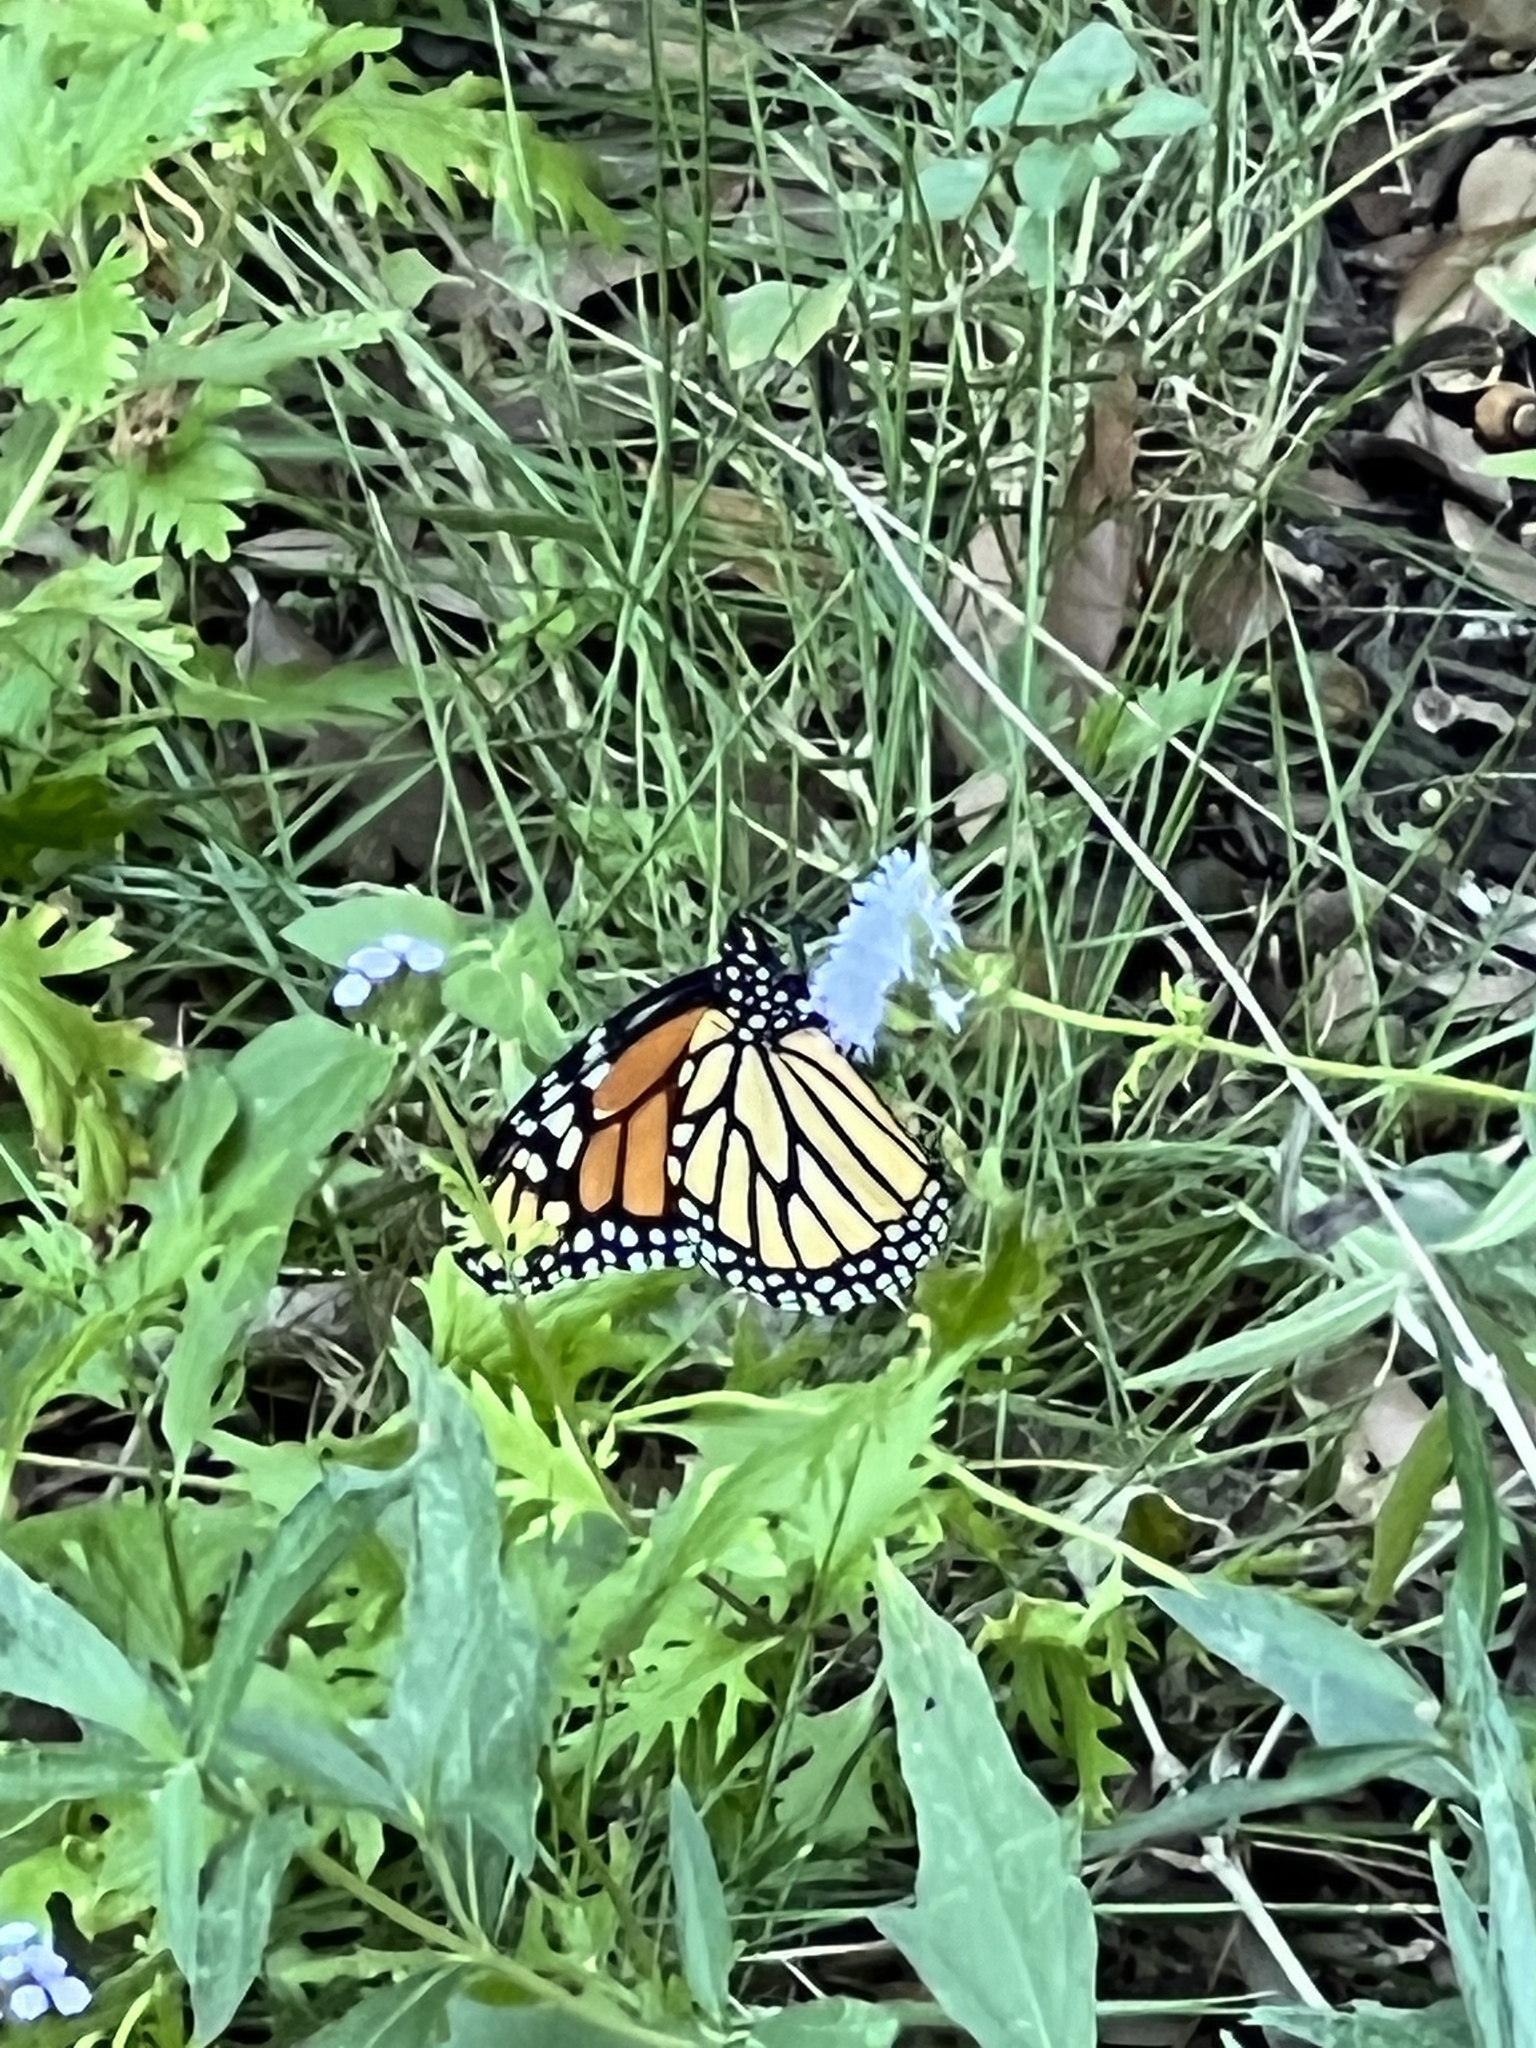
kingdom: Animalia
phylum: Arthropoda
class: Insecta
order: Lepidoptera
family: Nymphalidae
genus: Danaus
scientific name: Danaus plexippus
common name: Monarch
